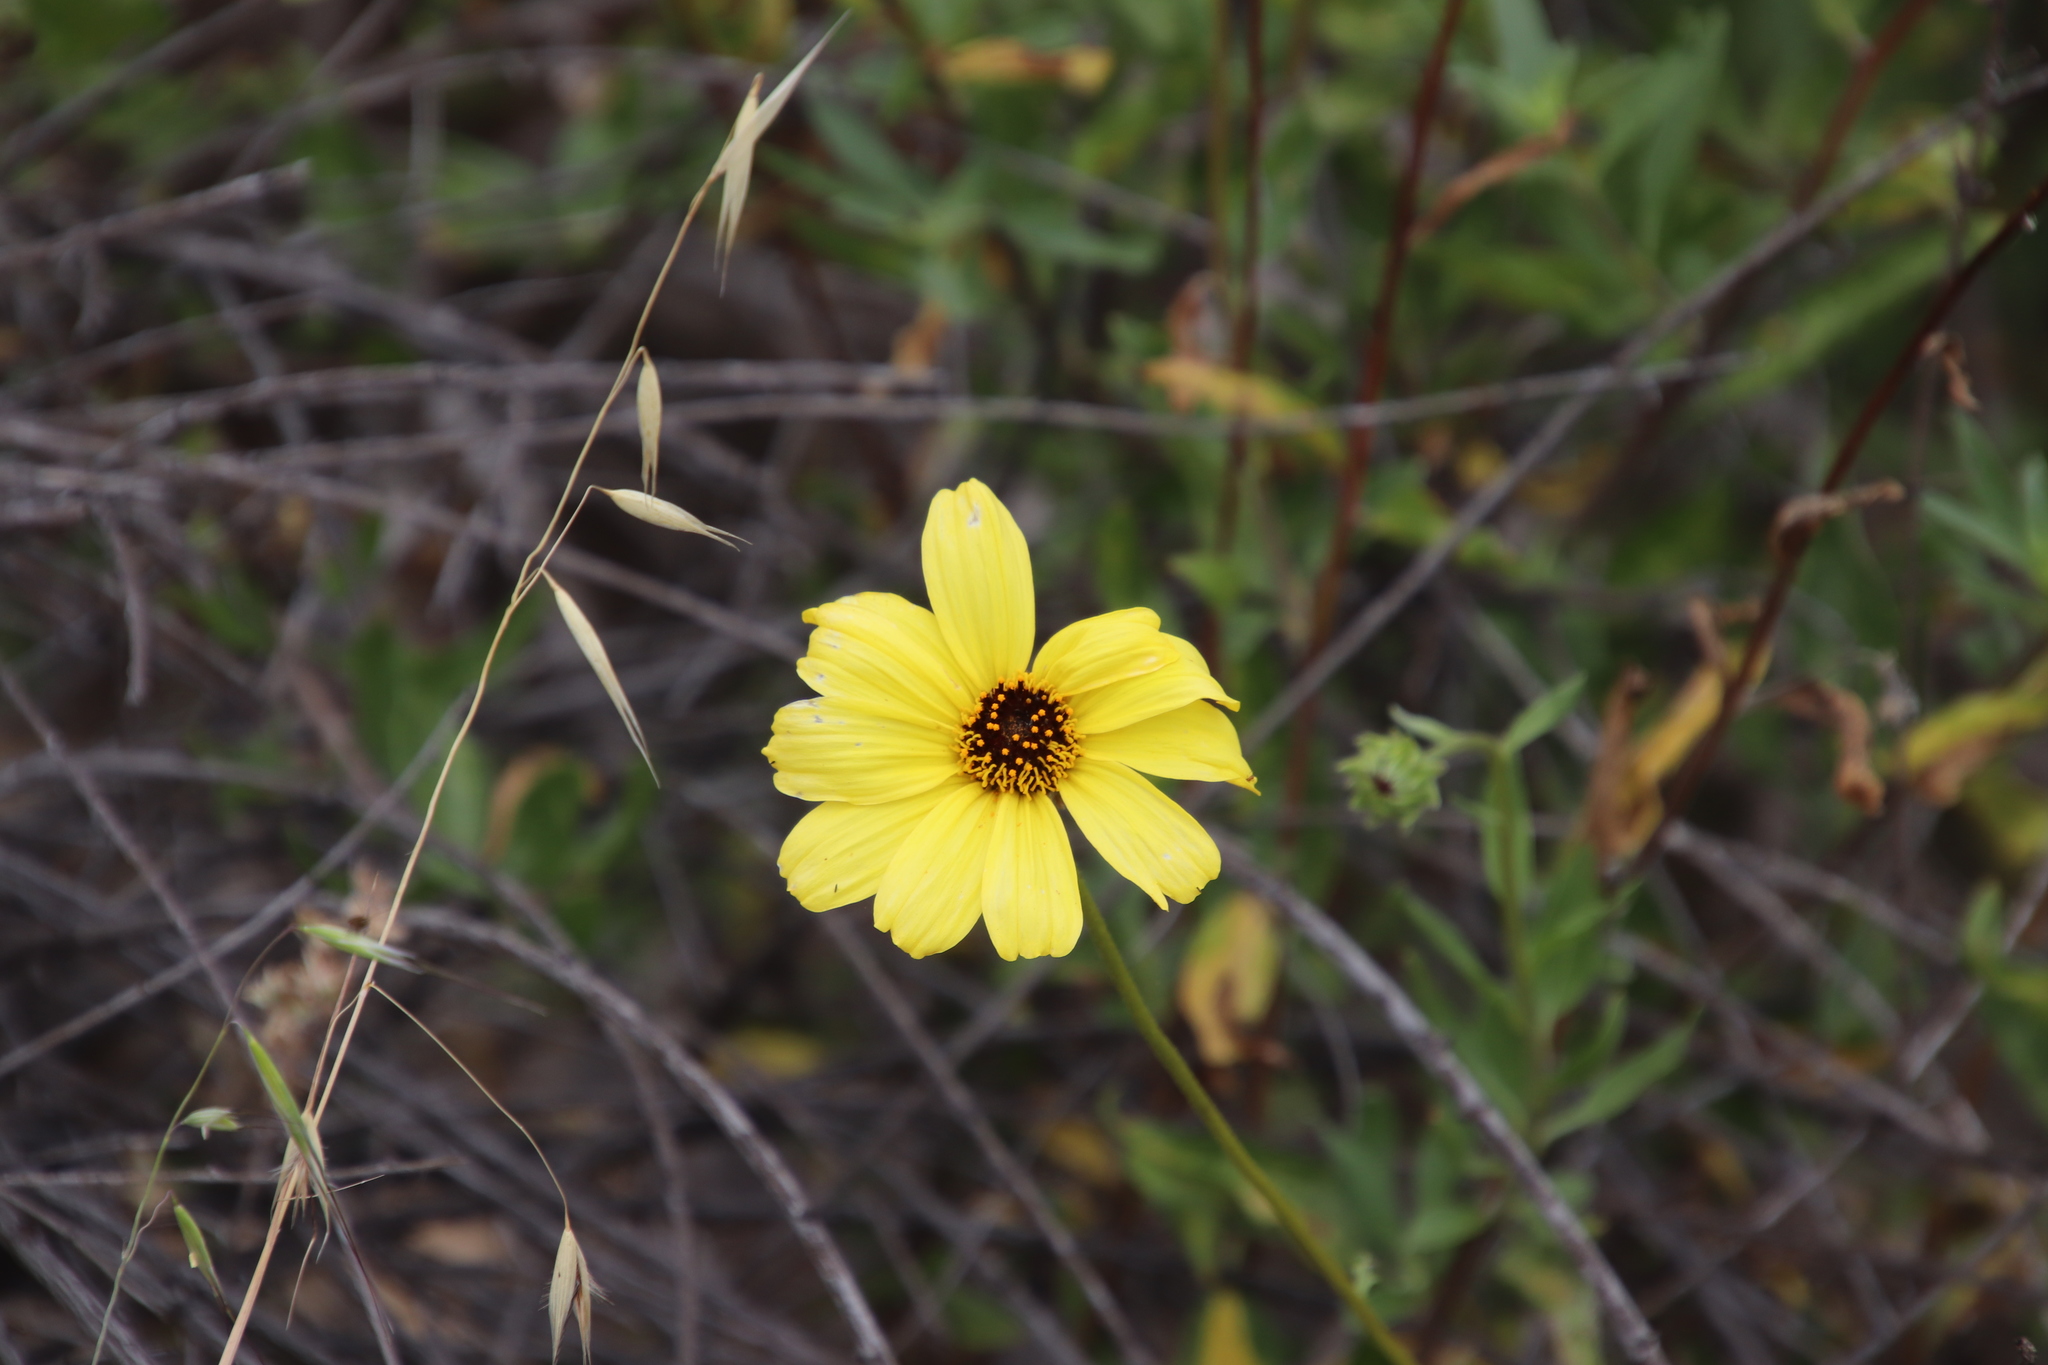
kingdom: Plantae
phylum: Tracheophyta
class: Magnoliopsida
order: Asterales
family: Asteraceae
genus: Encelia
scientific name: Encelia californica
